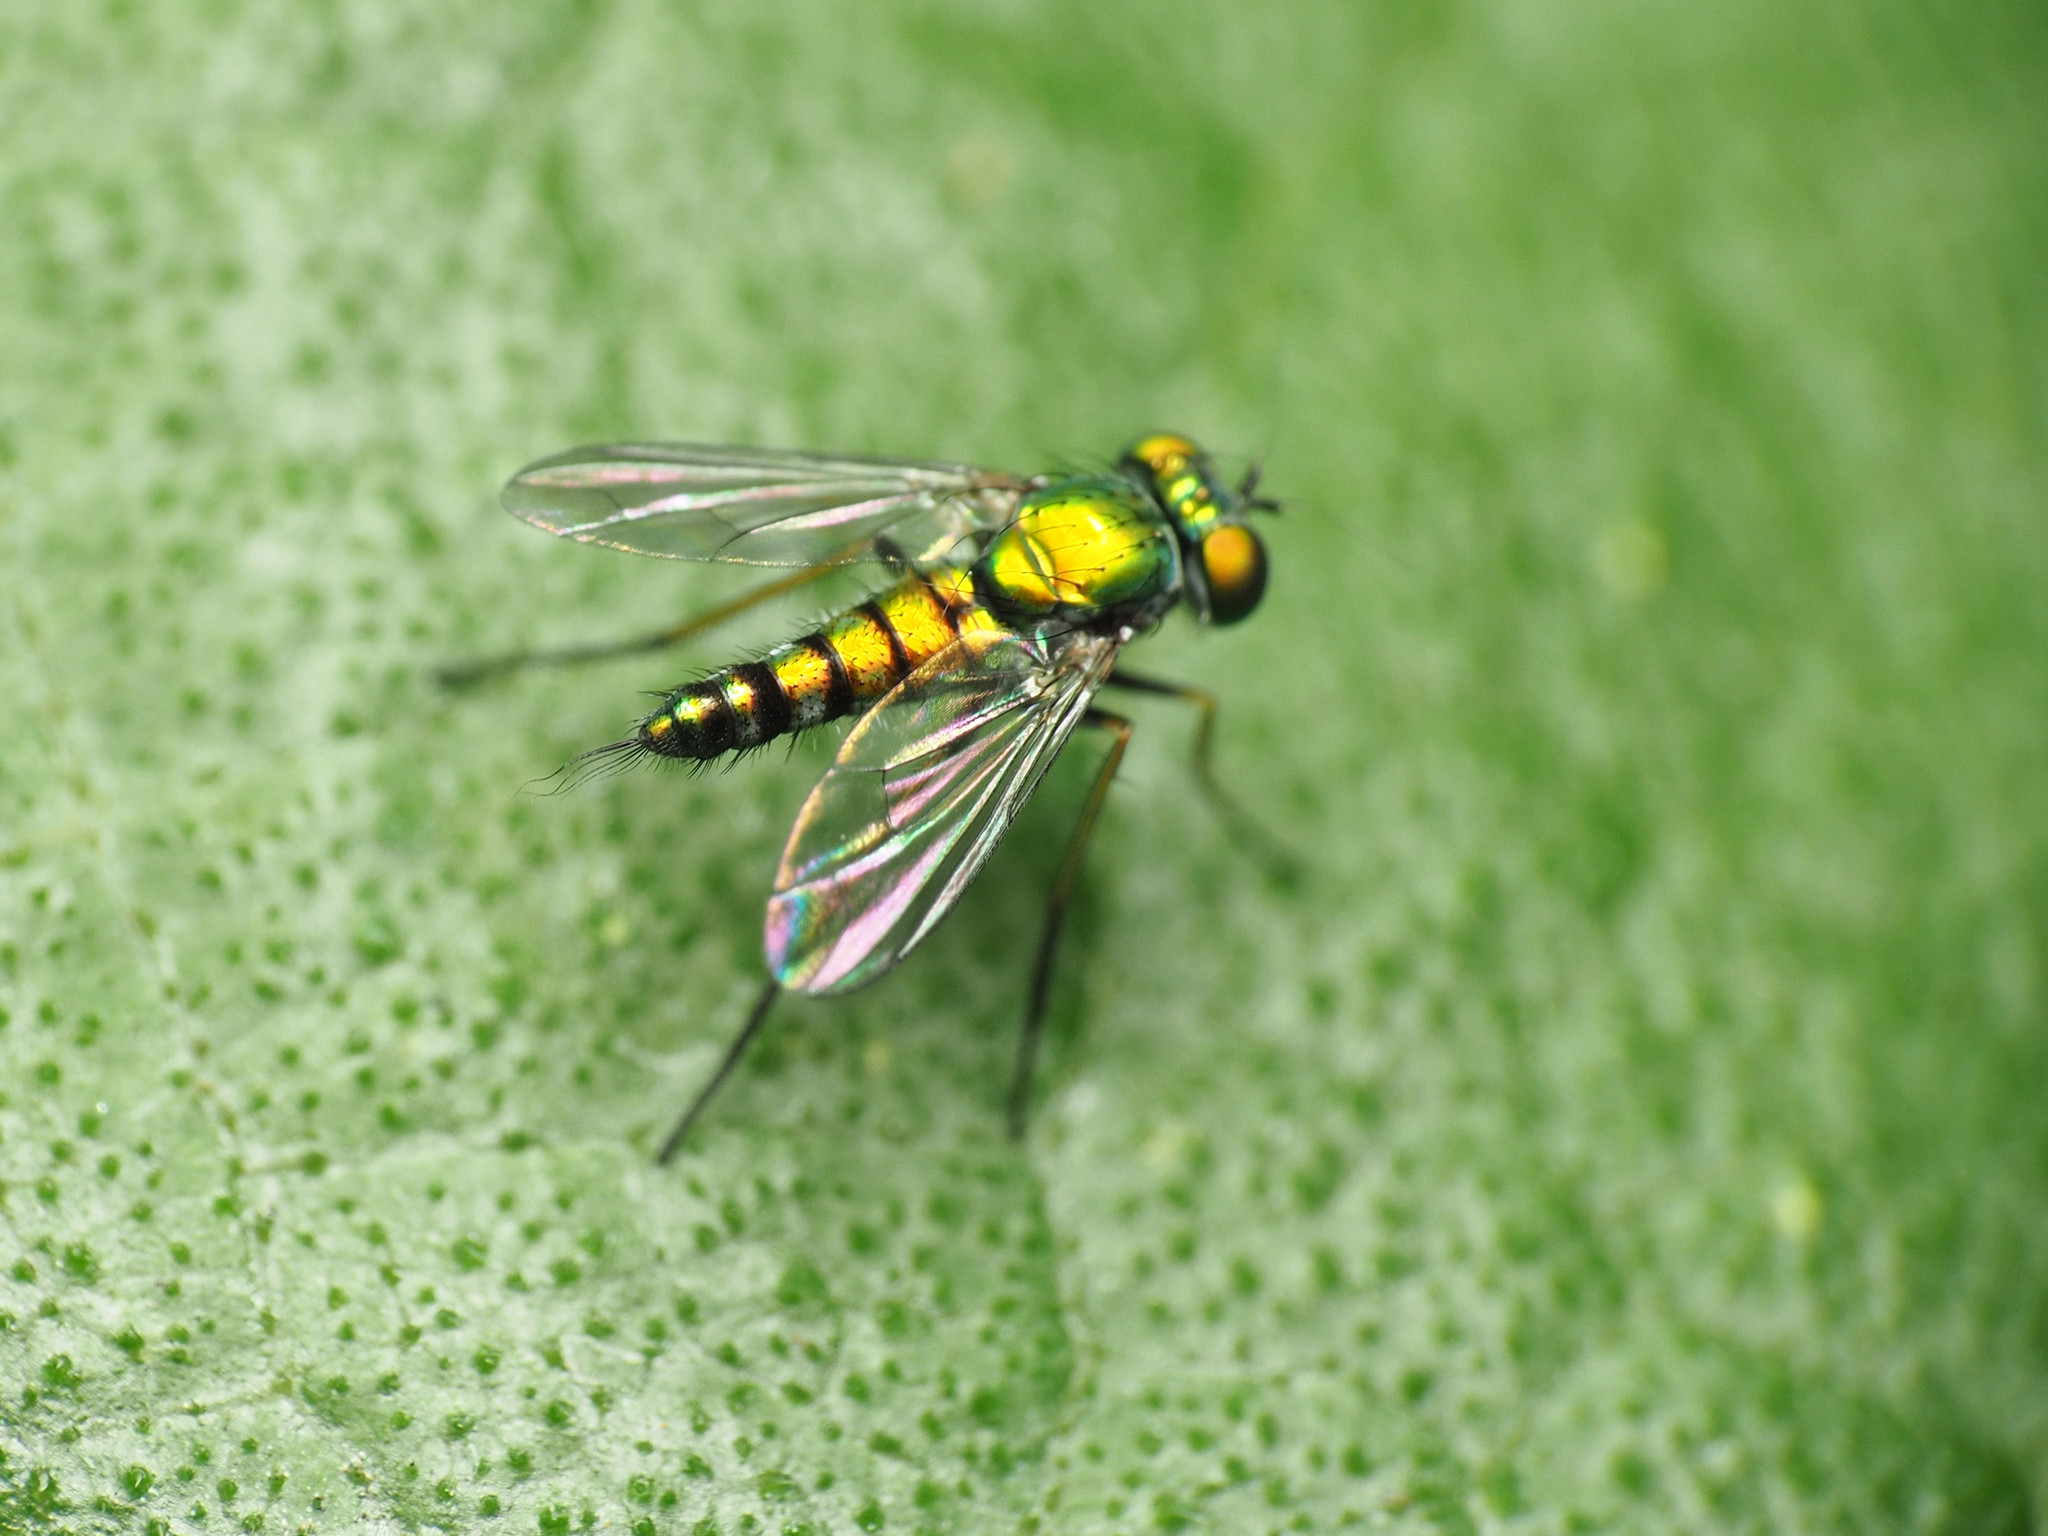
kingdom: Animalia
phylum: Arthropoda
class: Insecta
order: Diptera
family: Dolichopodidae
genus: Condylostylus
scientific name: Condylostylus caudatus
